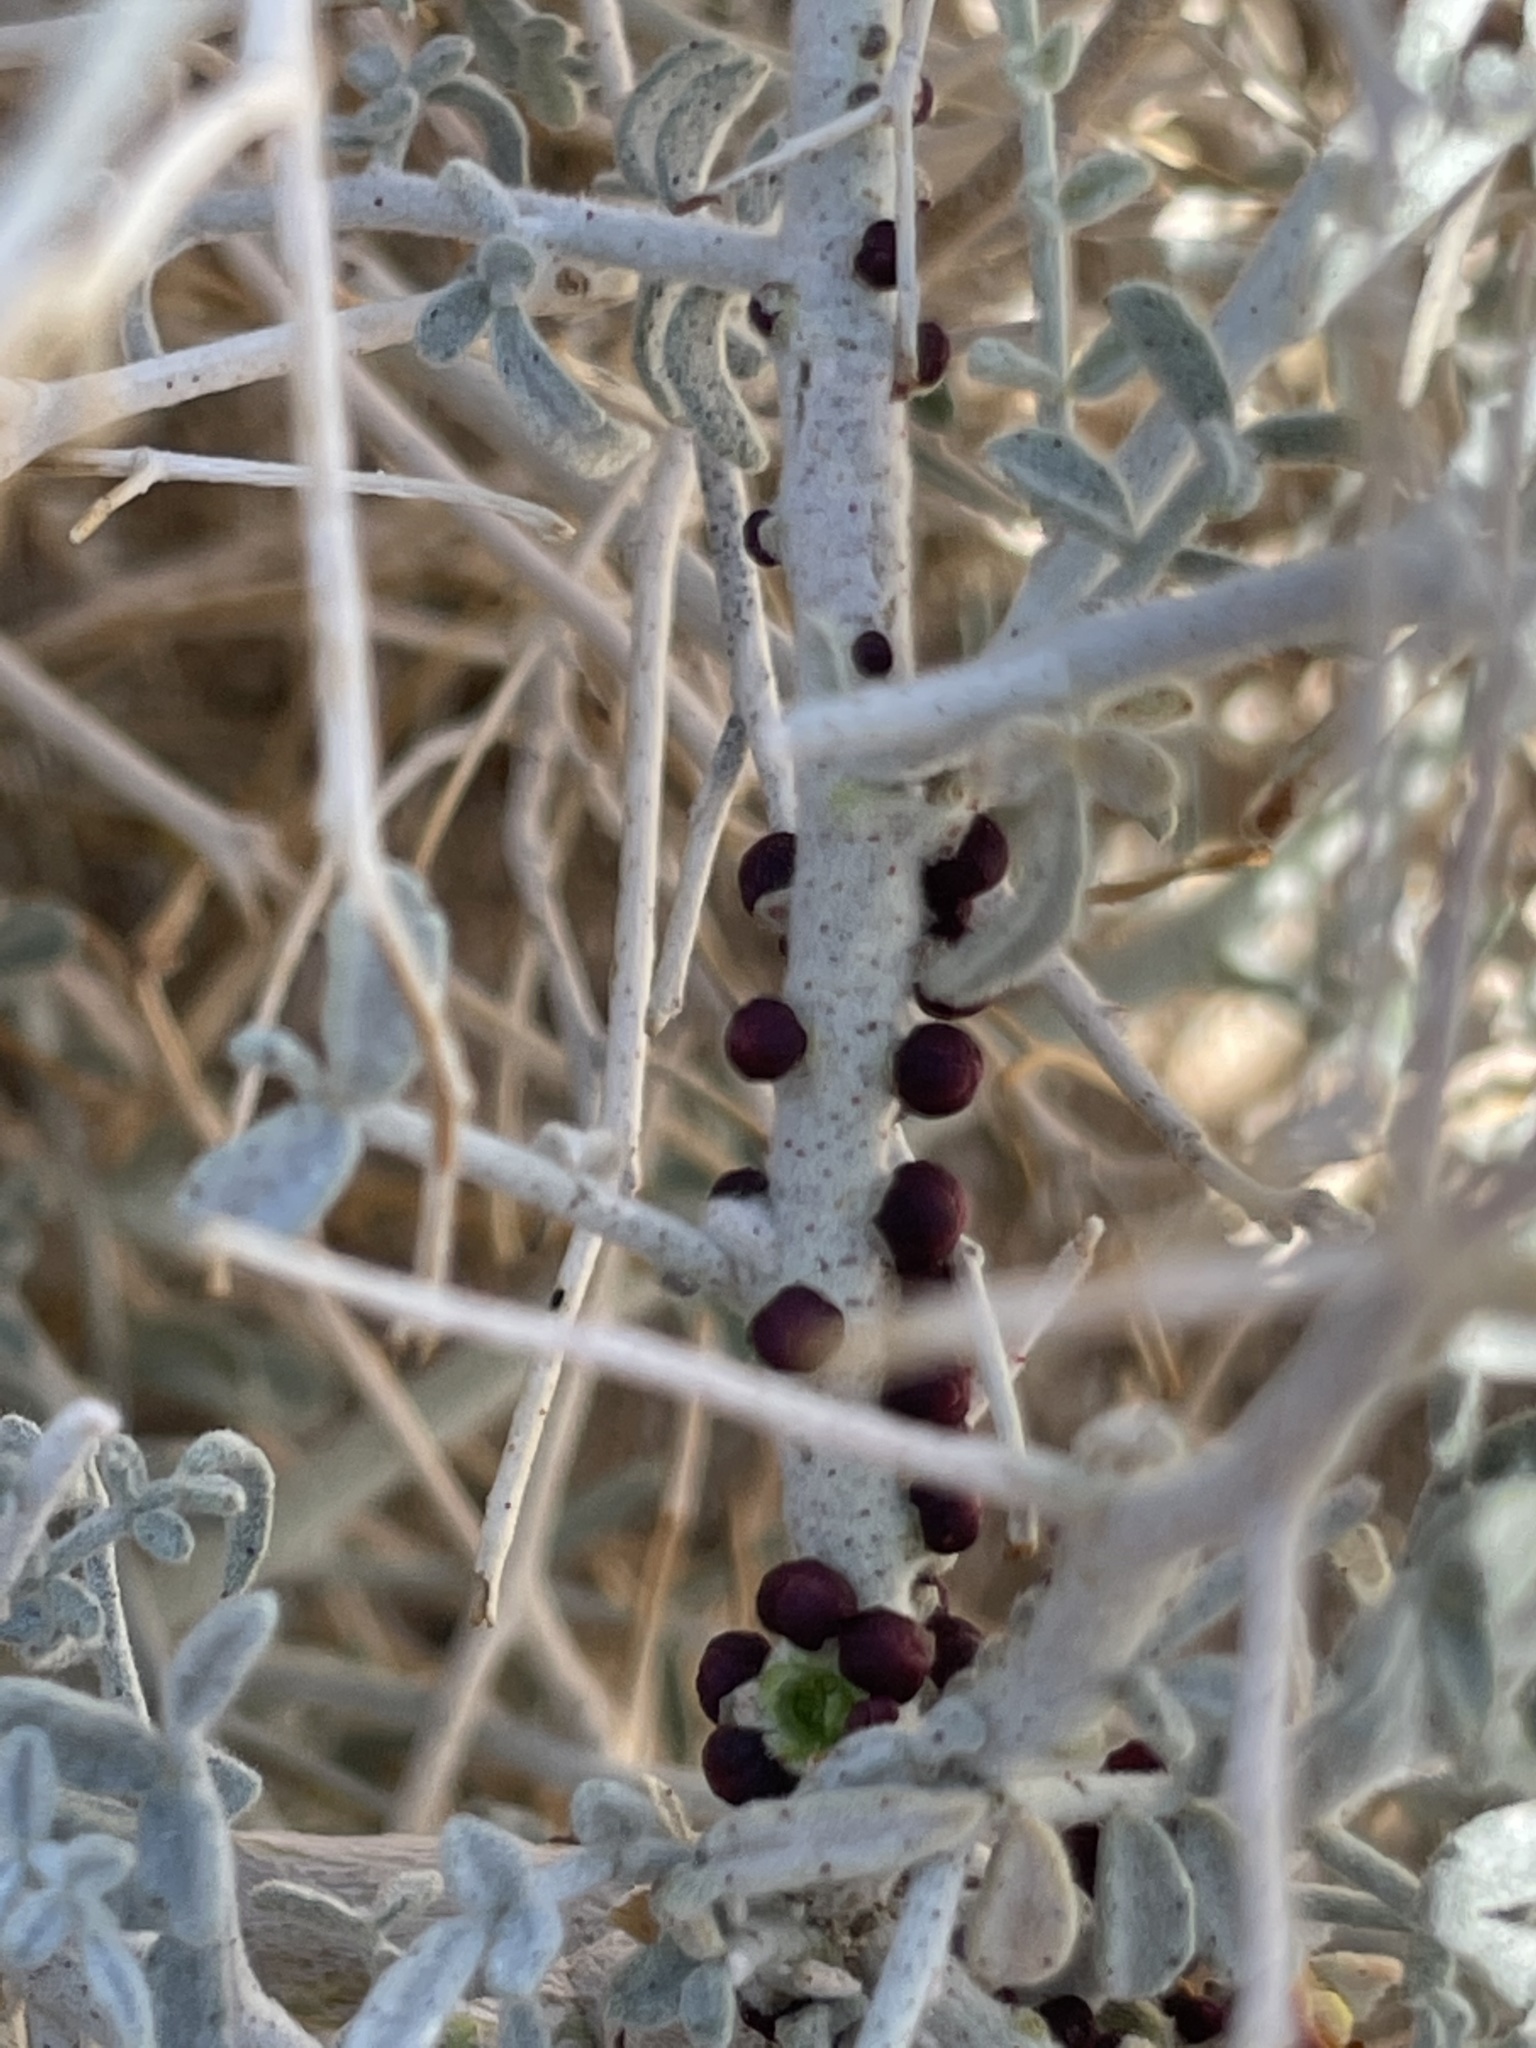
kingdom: Plantae
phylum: Tracheophyta
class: Magnoliopsida
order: Cucurbitales
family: Apodanthaceae
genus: Pilostyles
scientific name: Pilostyles thurberi
